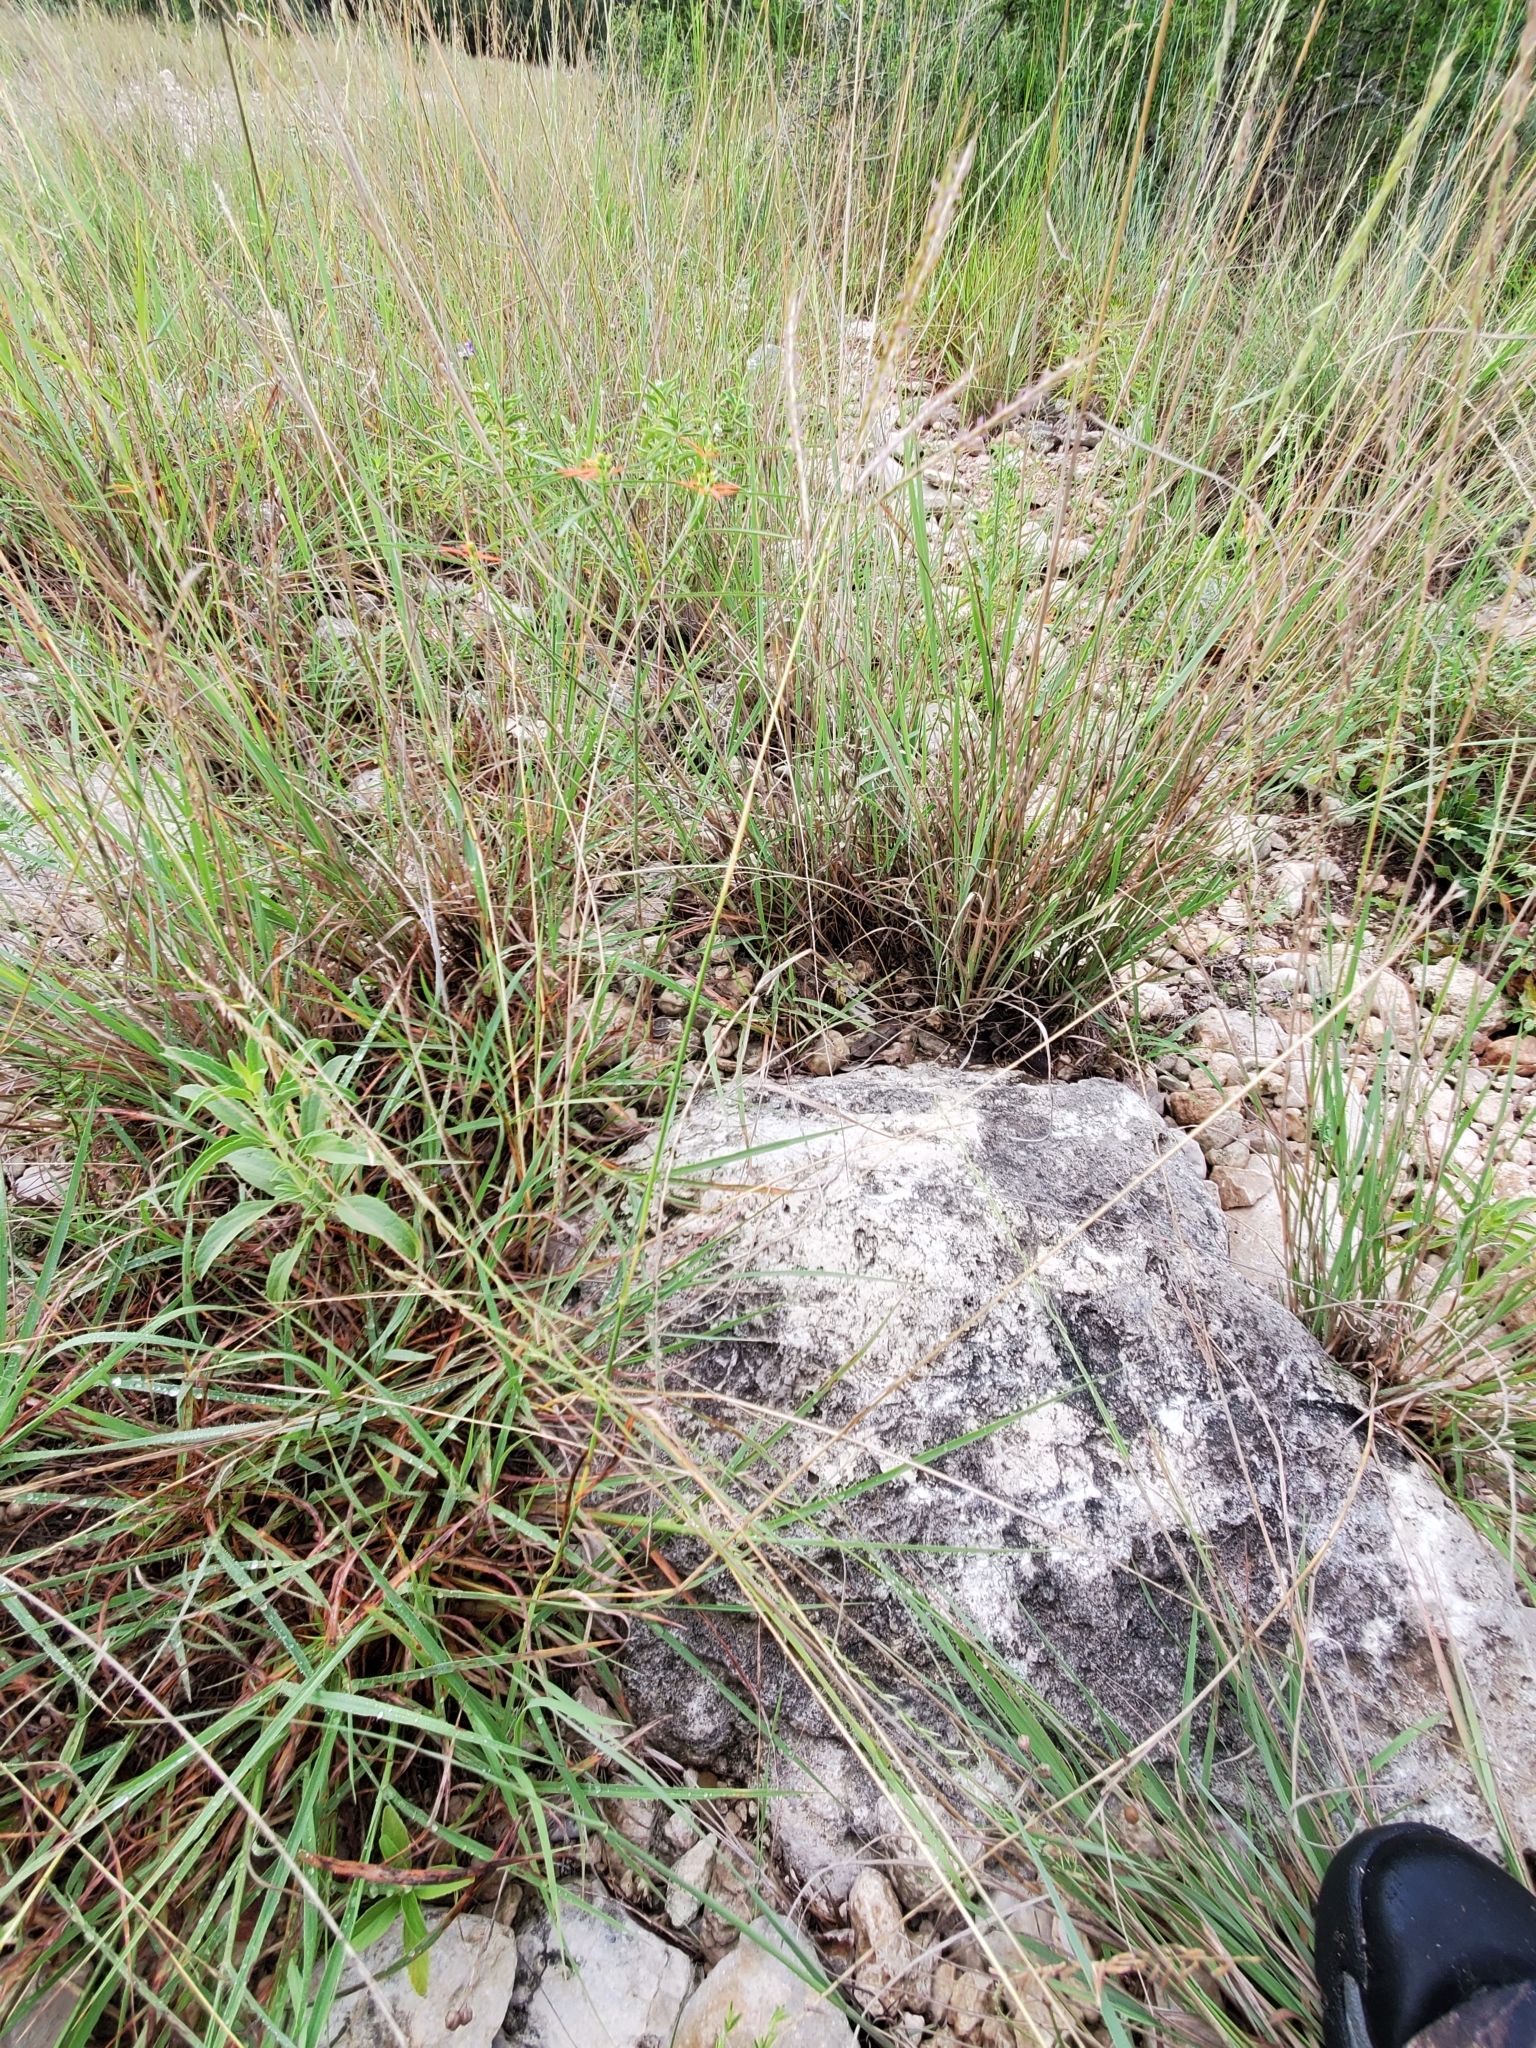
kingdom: Plantae
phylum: Tracheophyta
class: Liliopsida
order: Poales
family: Poaceae
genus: Bothriochloa
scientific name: Bothriochloa ischaemum
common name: Yellow bluestem
